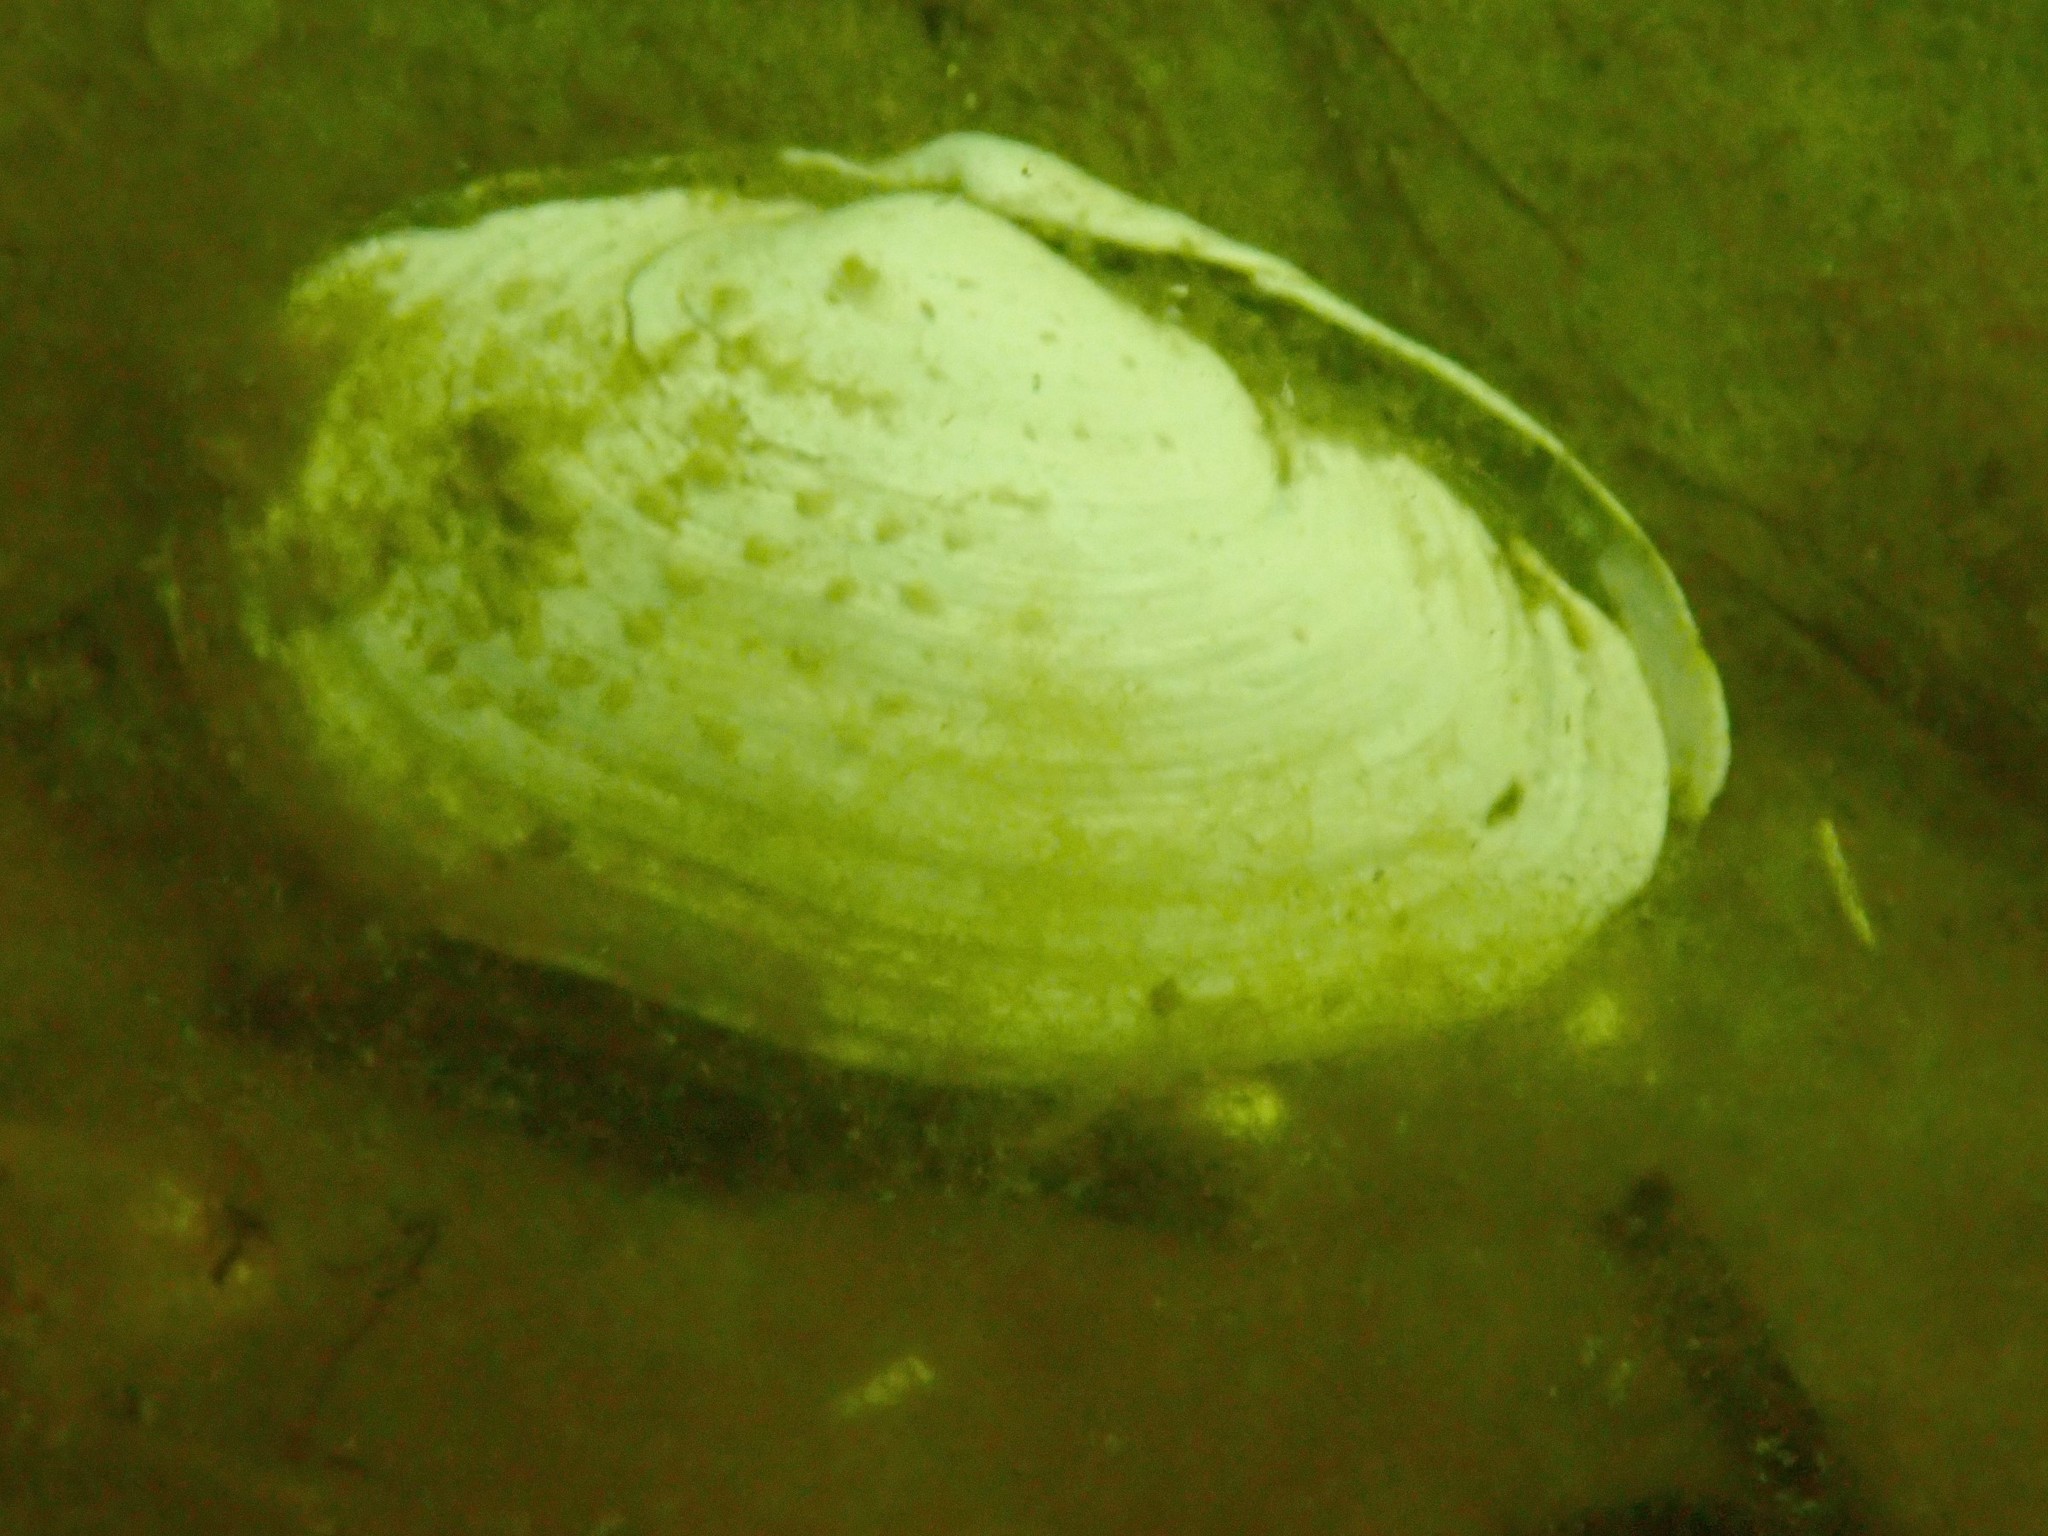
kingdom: Animalia
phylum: Mollusca
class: Bivalvia
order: Myida
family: Myidae
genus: Mya
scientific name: Mya arenaria
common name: Soft-shelled clam
